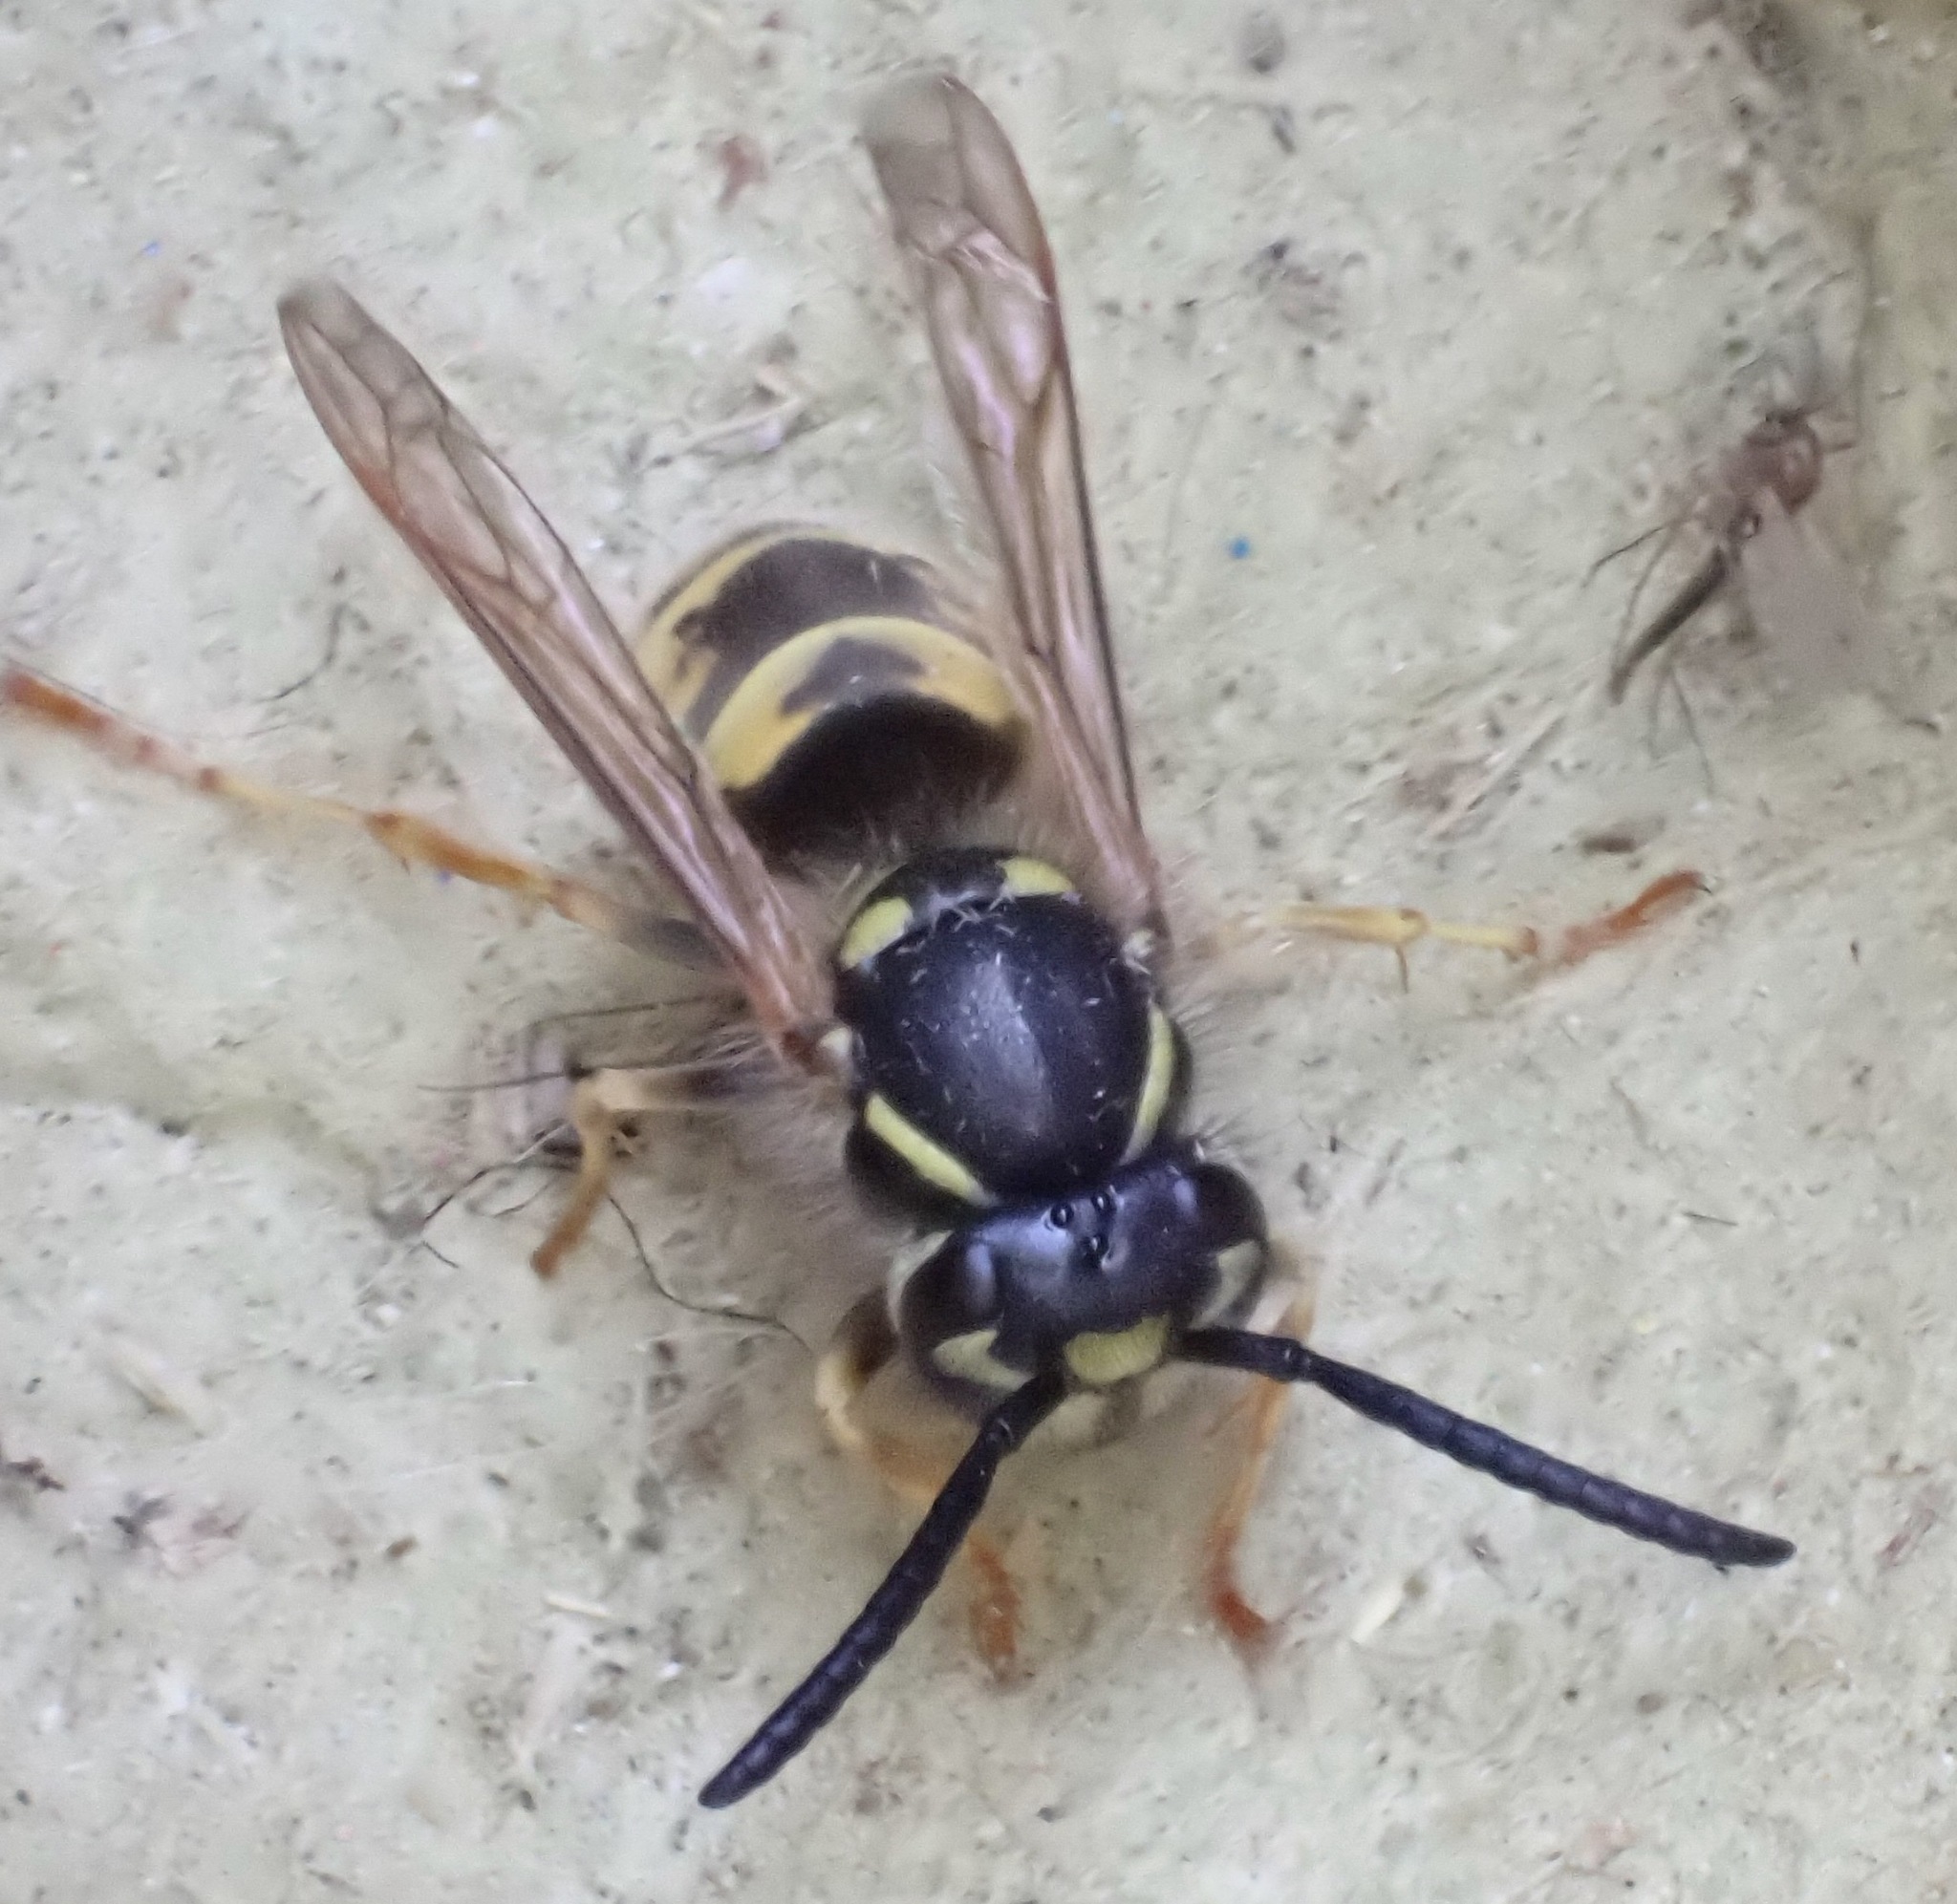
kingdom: Animalia
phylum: Arthropoda
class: Insecta
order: Hymenoptera
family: Vespidae
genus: Vespula
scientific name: Vespula vulgaris
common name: Common wasp
